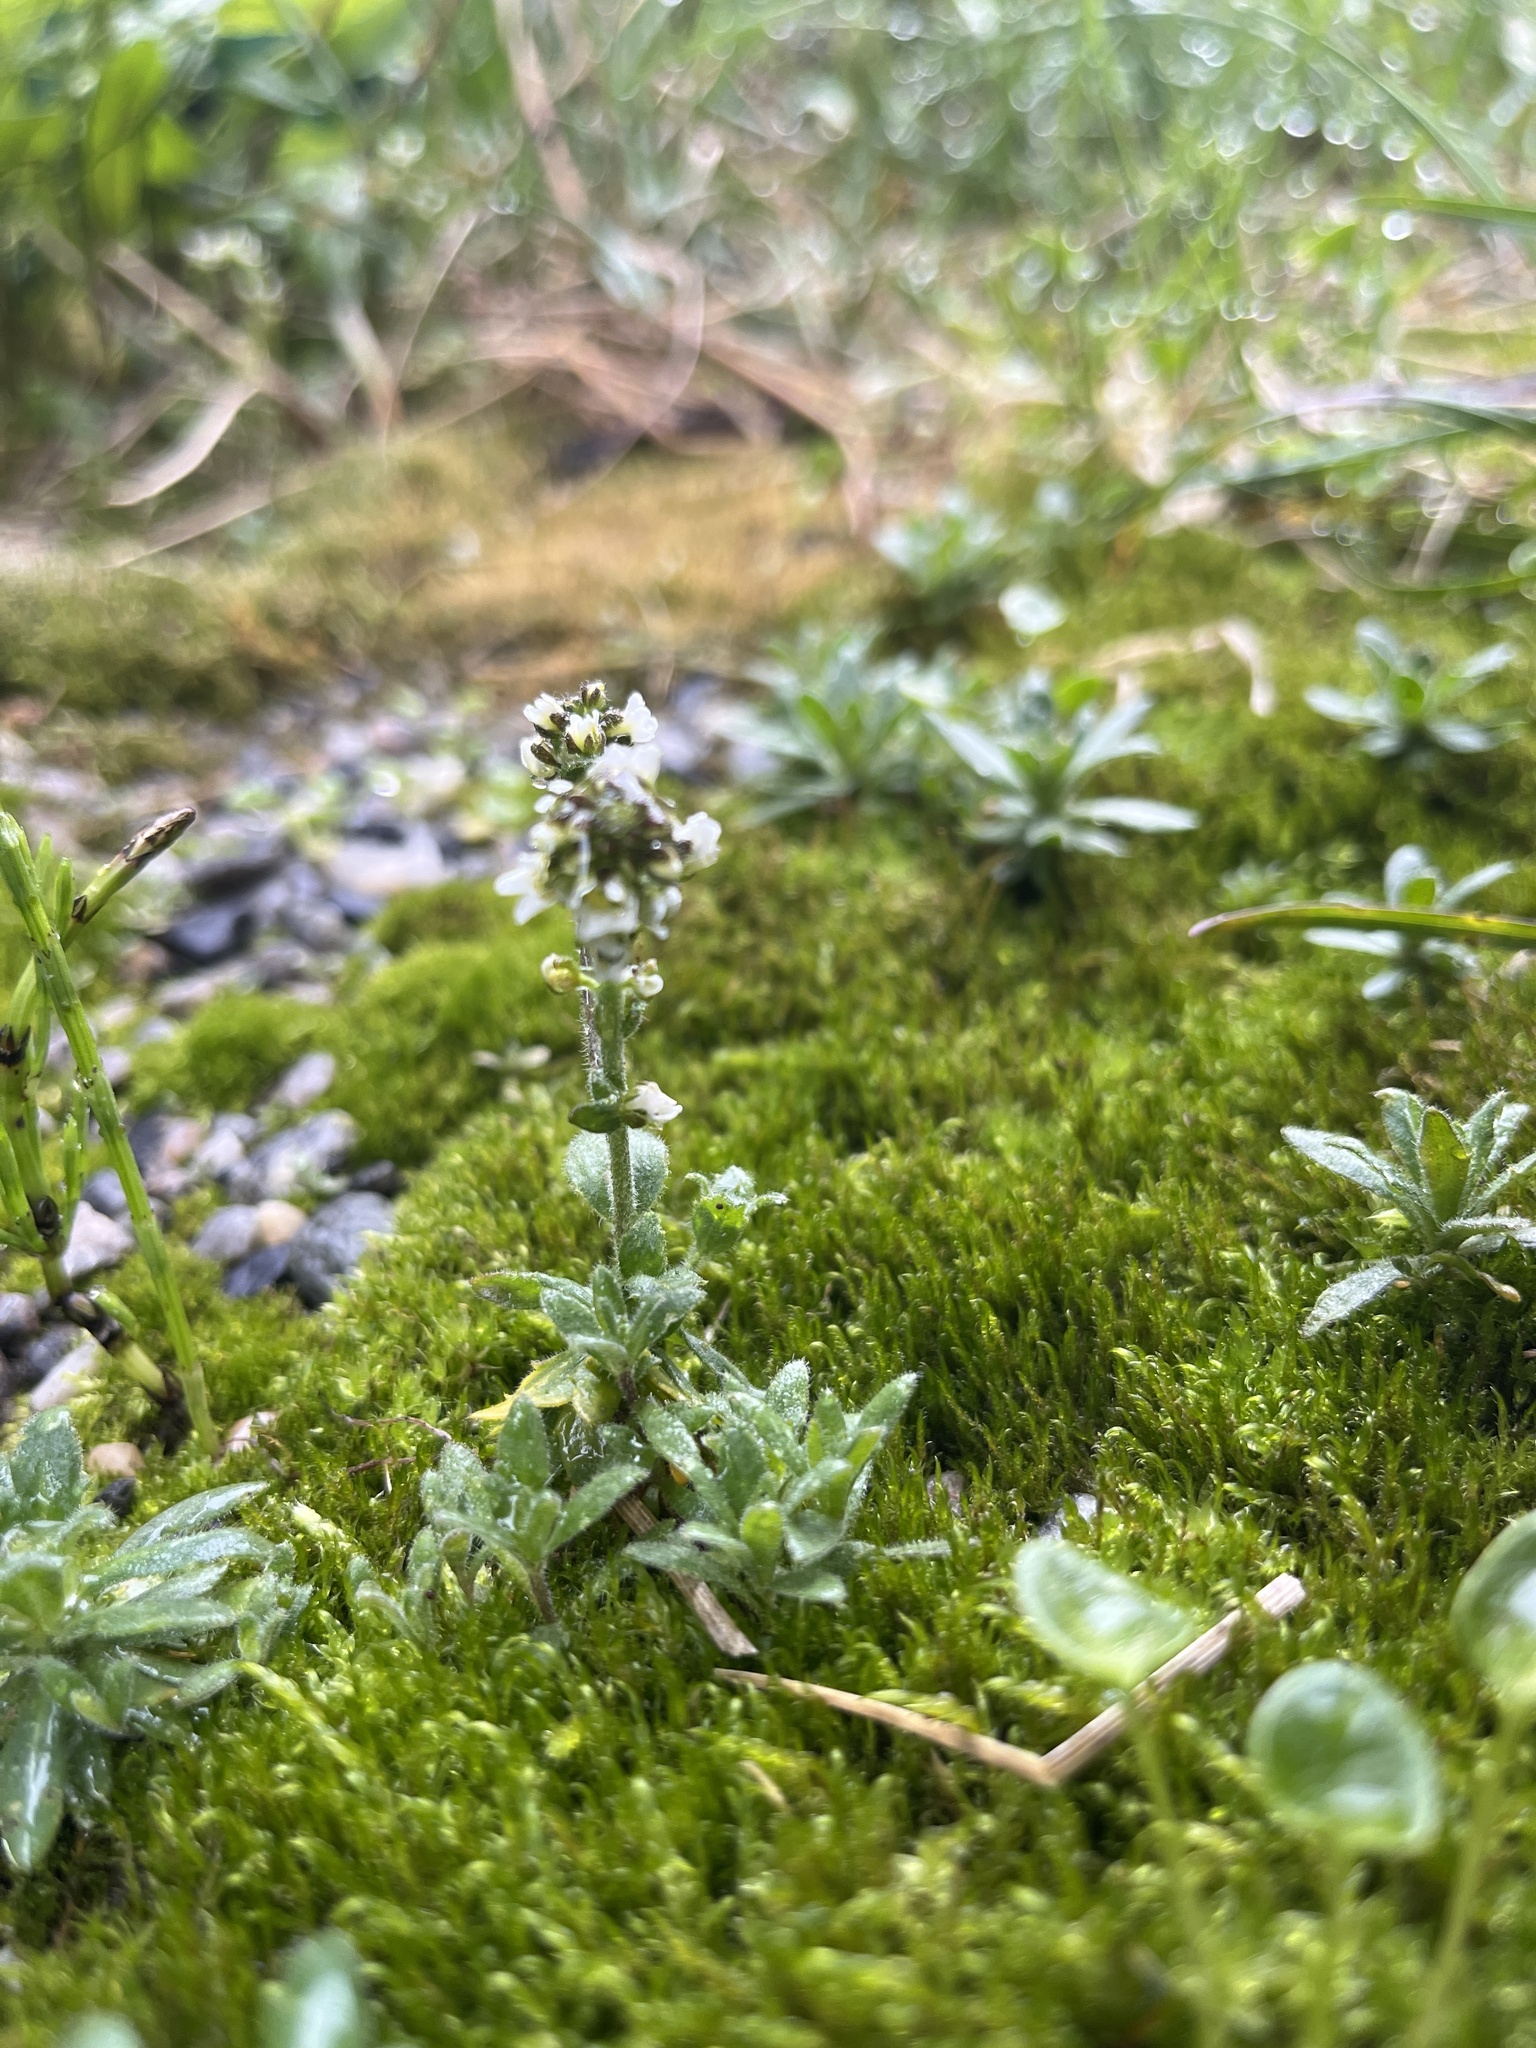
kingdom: Plantae
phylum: Tracheophyta
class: Magnoliopsida
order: Brassicales
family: Brassicaceae
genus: Arabis
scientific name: Arabis alpina
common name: Alpine rock-cress
